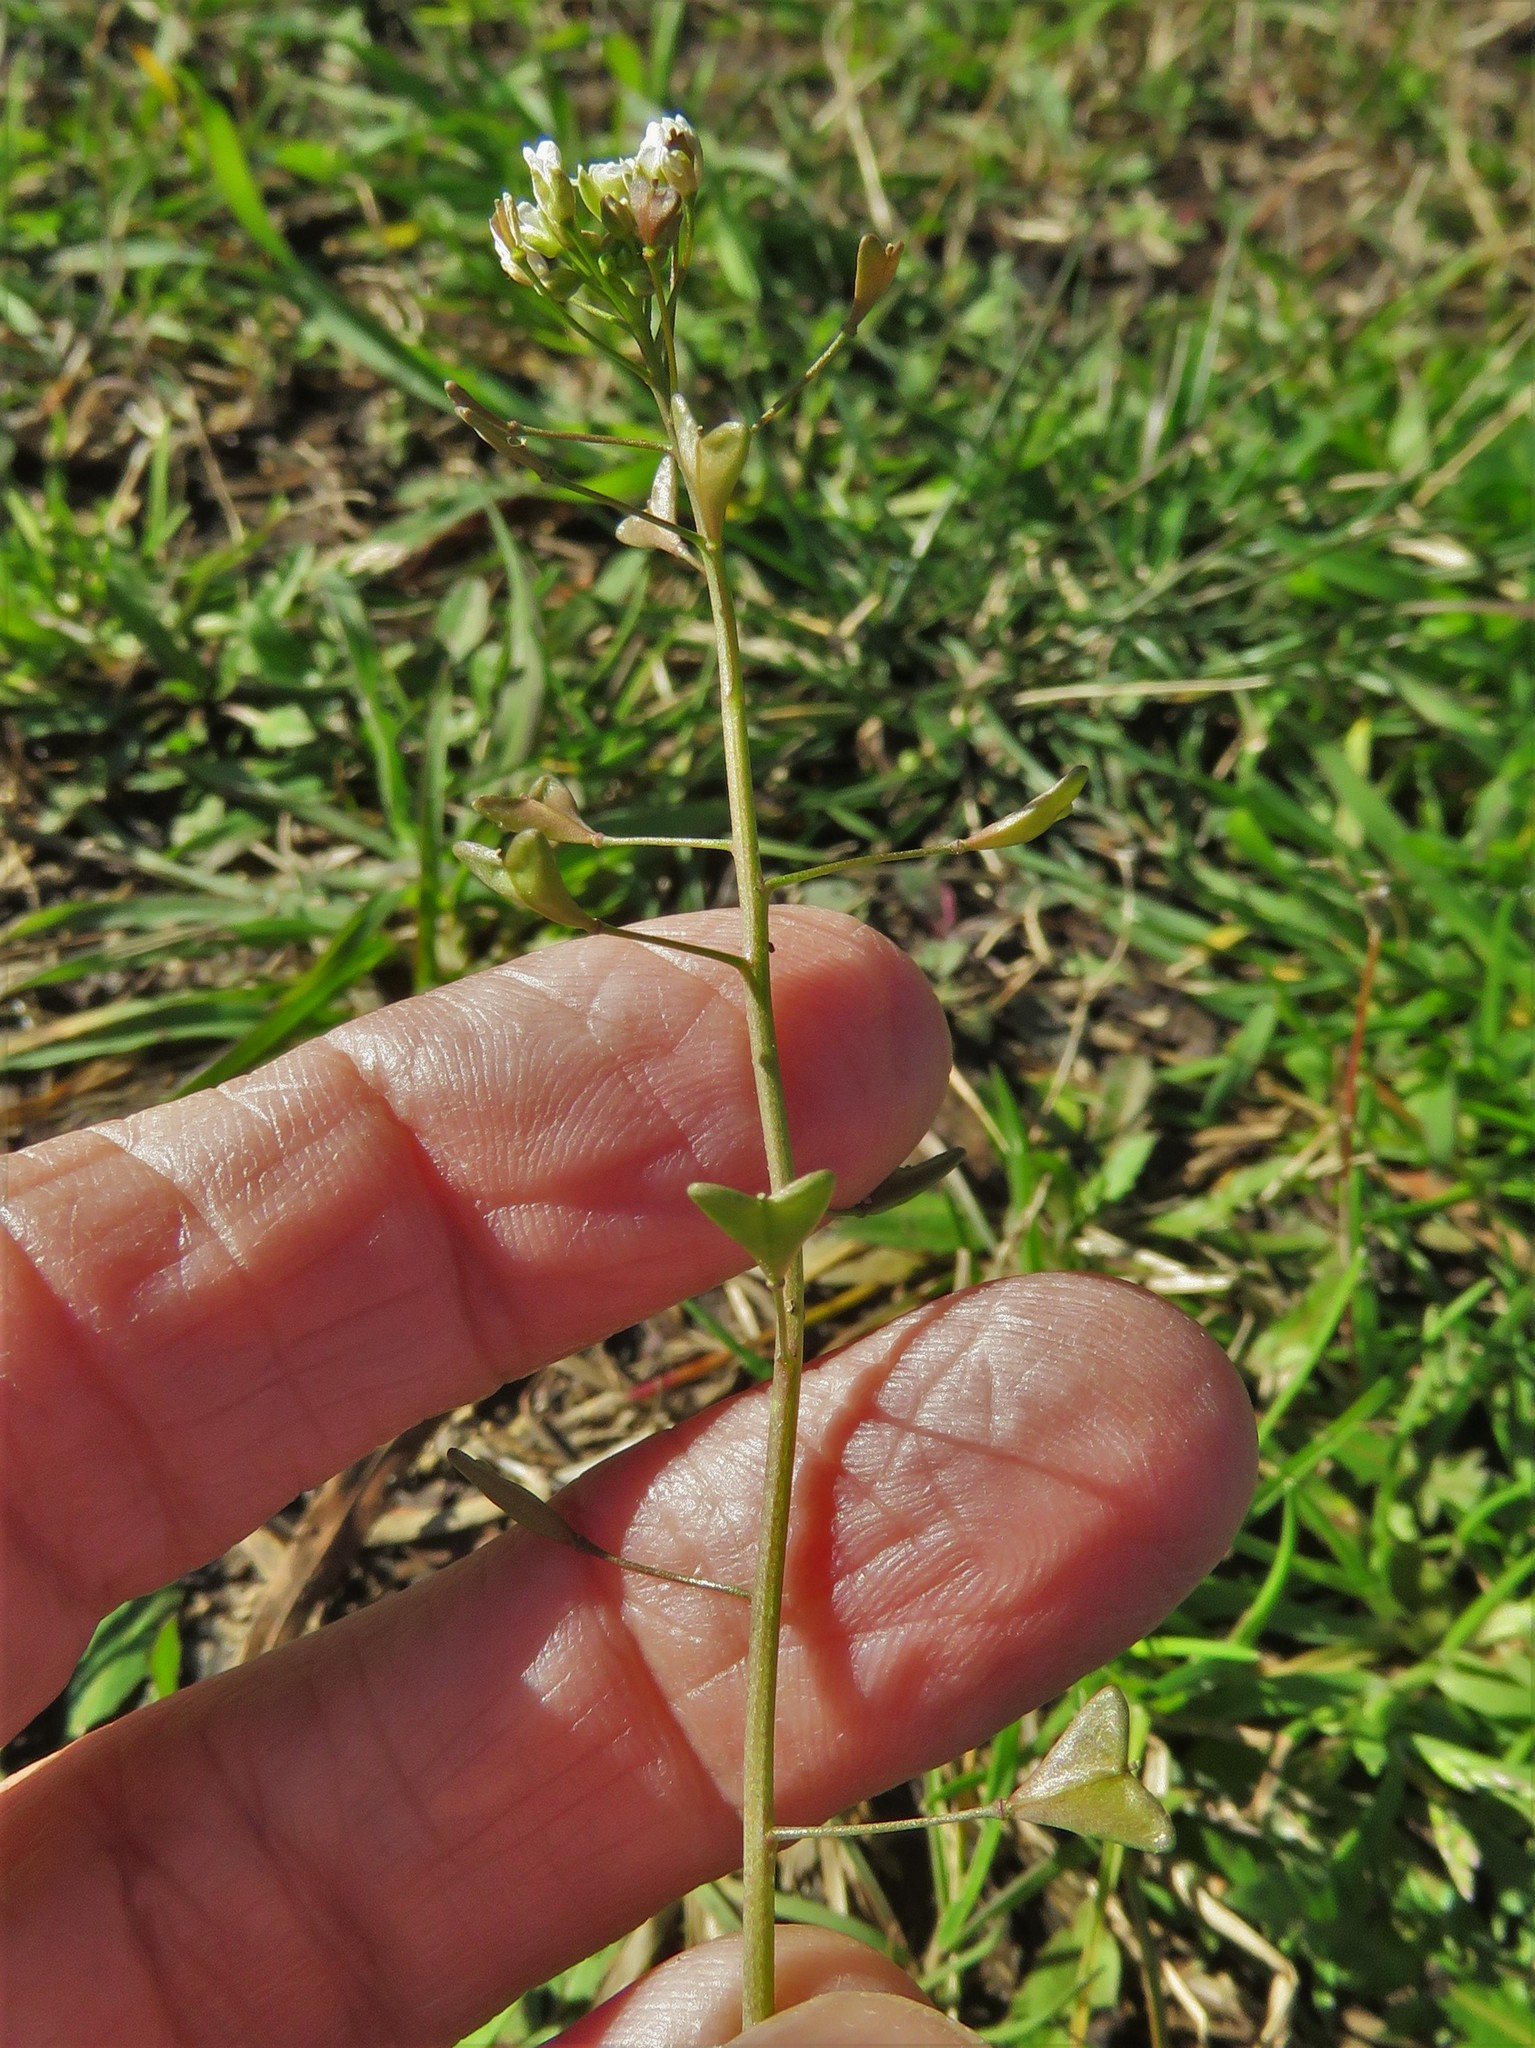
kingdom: Plantae
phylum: Tracheophyta
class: Magnoliopsida
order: Brassicales
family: Brassicaceae
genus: Capsella
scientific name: Capsella bursa-pastoris
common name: Shepherd's purse
